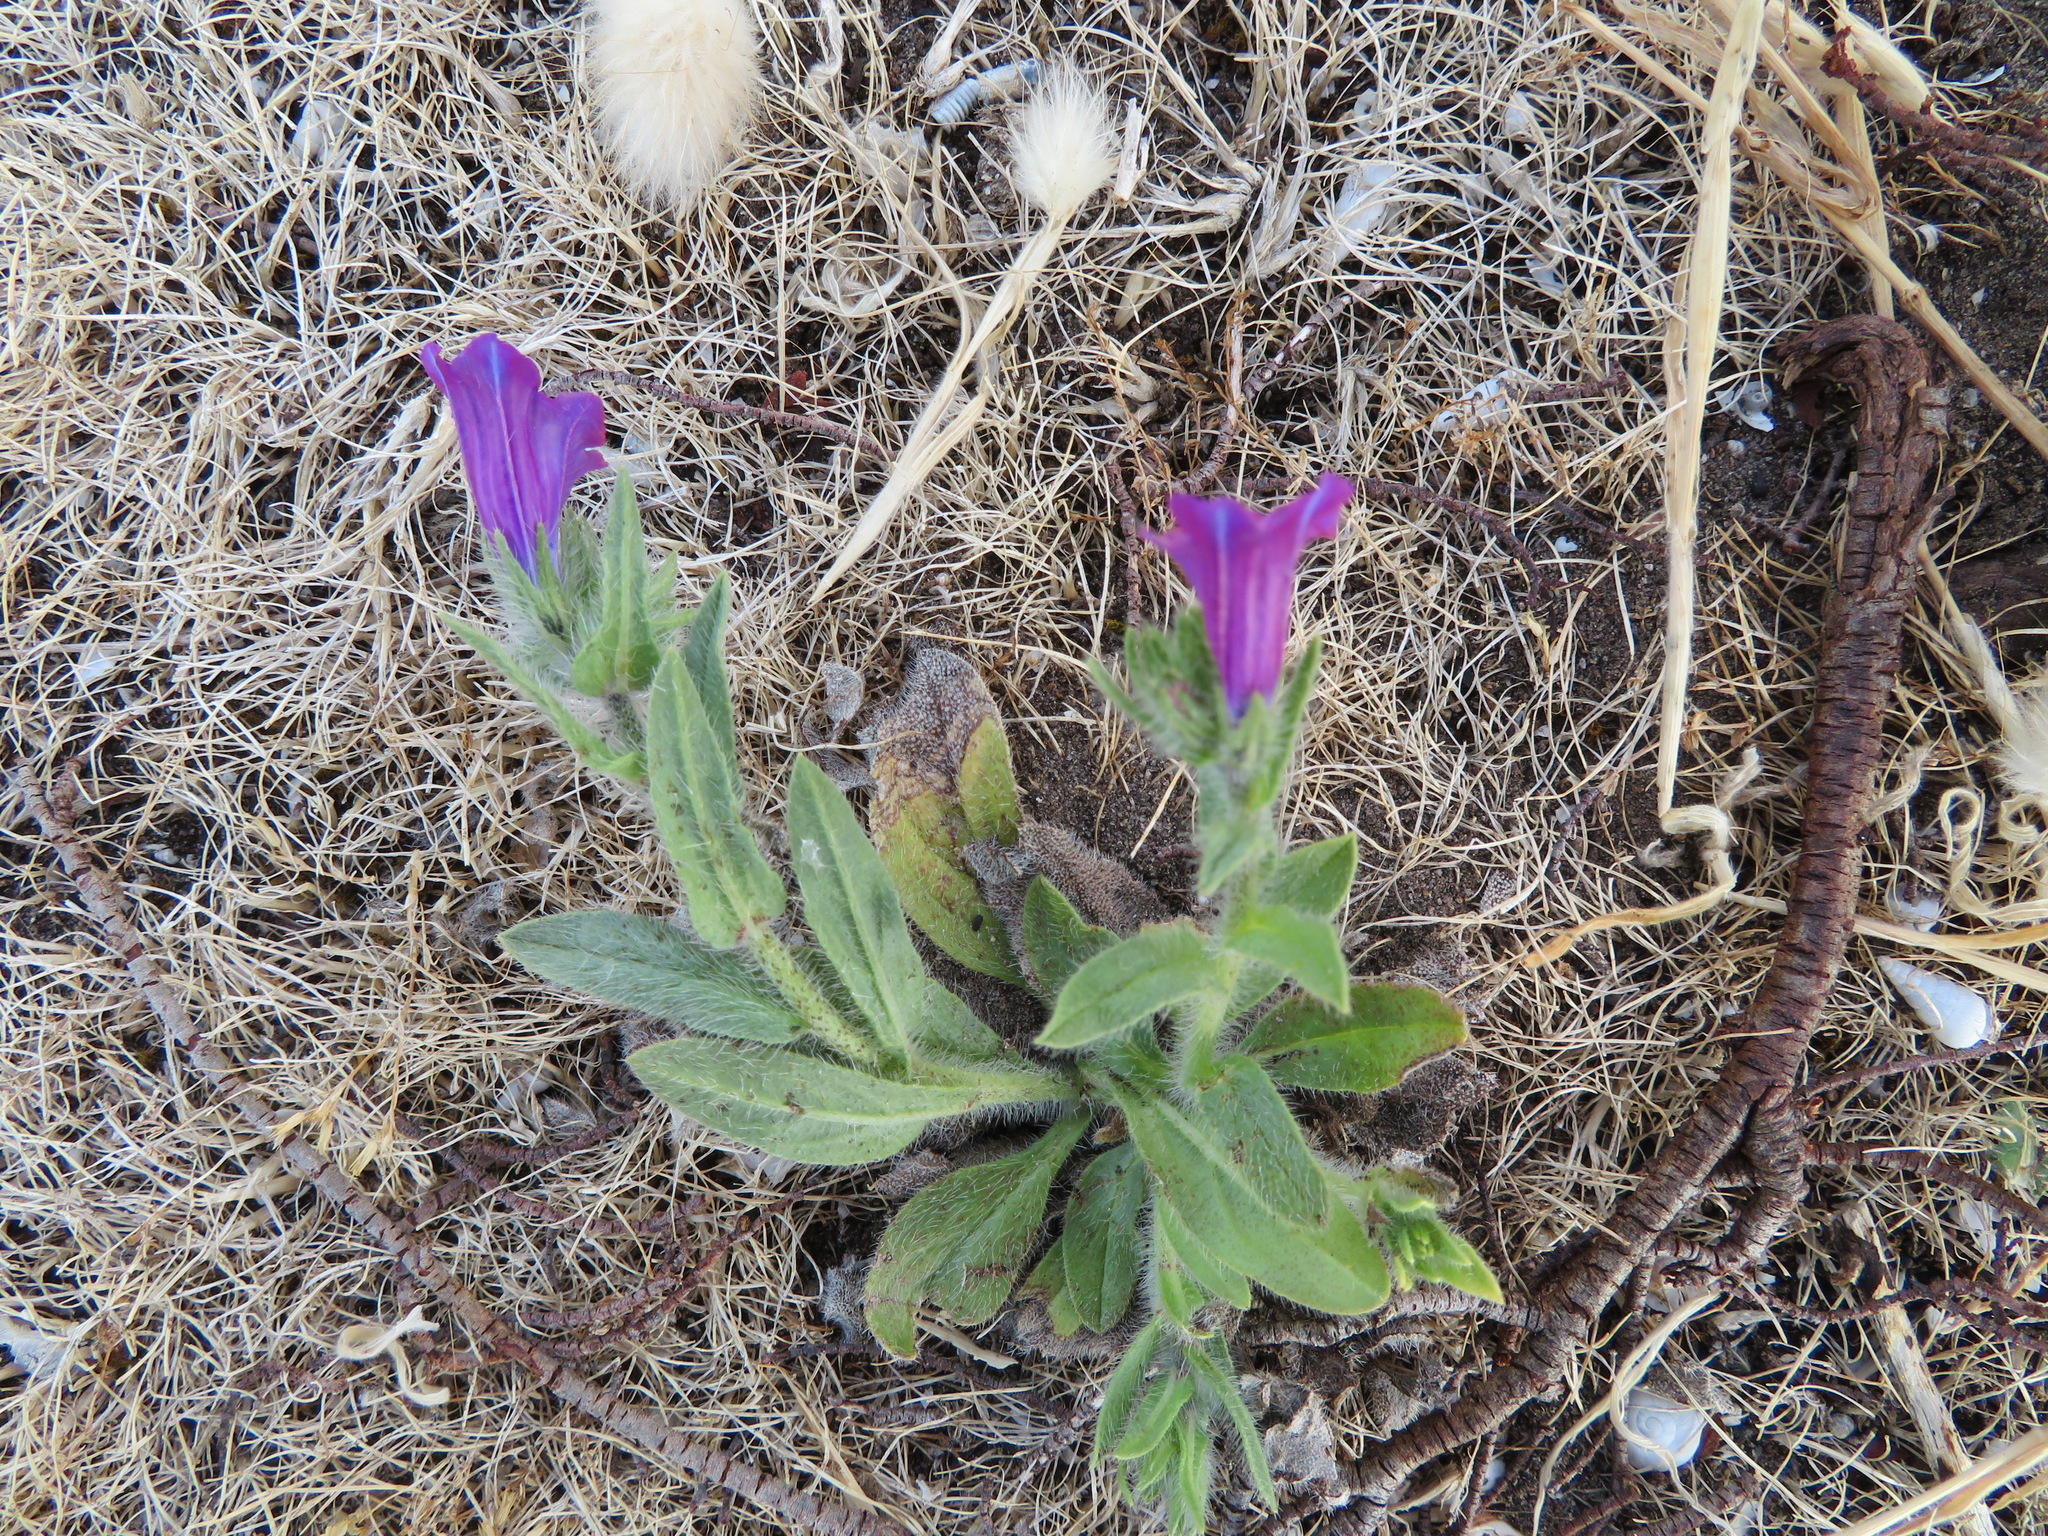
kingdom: Plantae
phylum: Tracheophyta
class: Magnoliopsida
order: Boraginales
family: Boraginaceae
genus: Echium
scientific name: Echium plantagineum
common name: Purple viper's-bugloss
